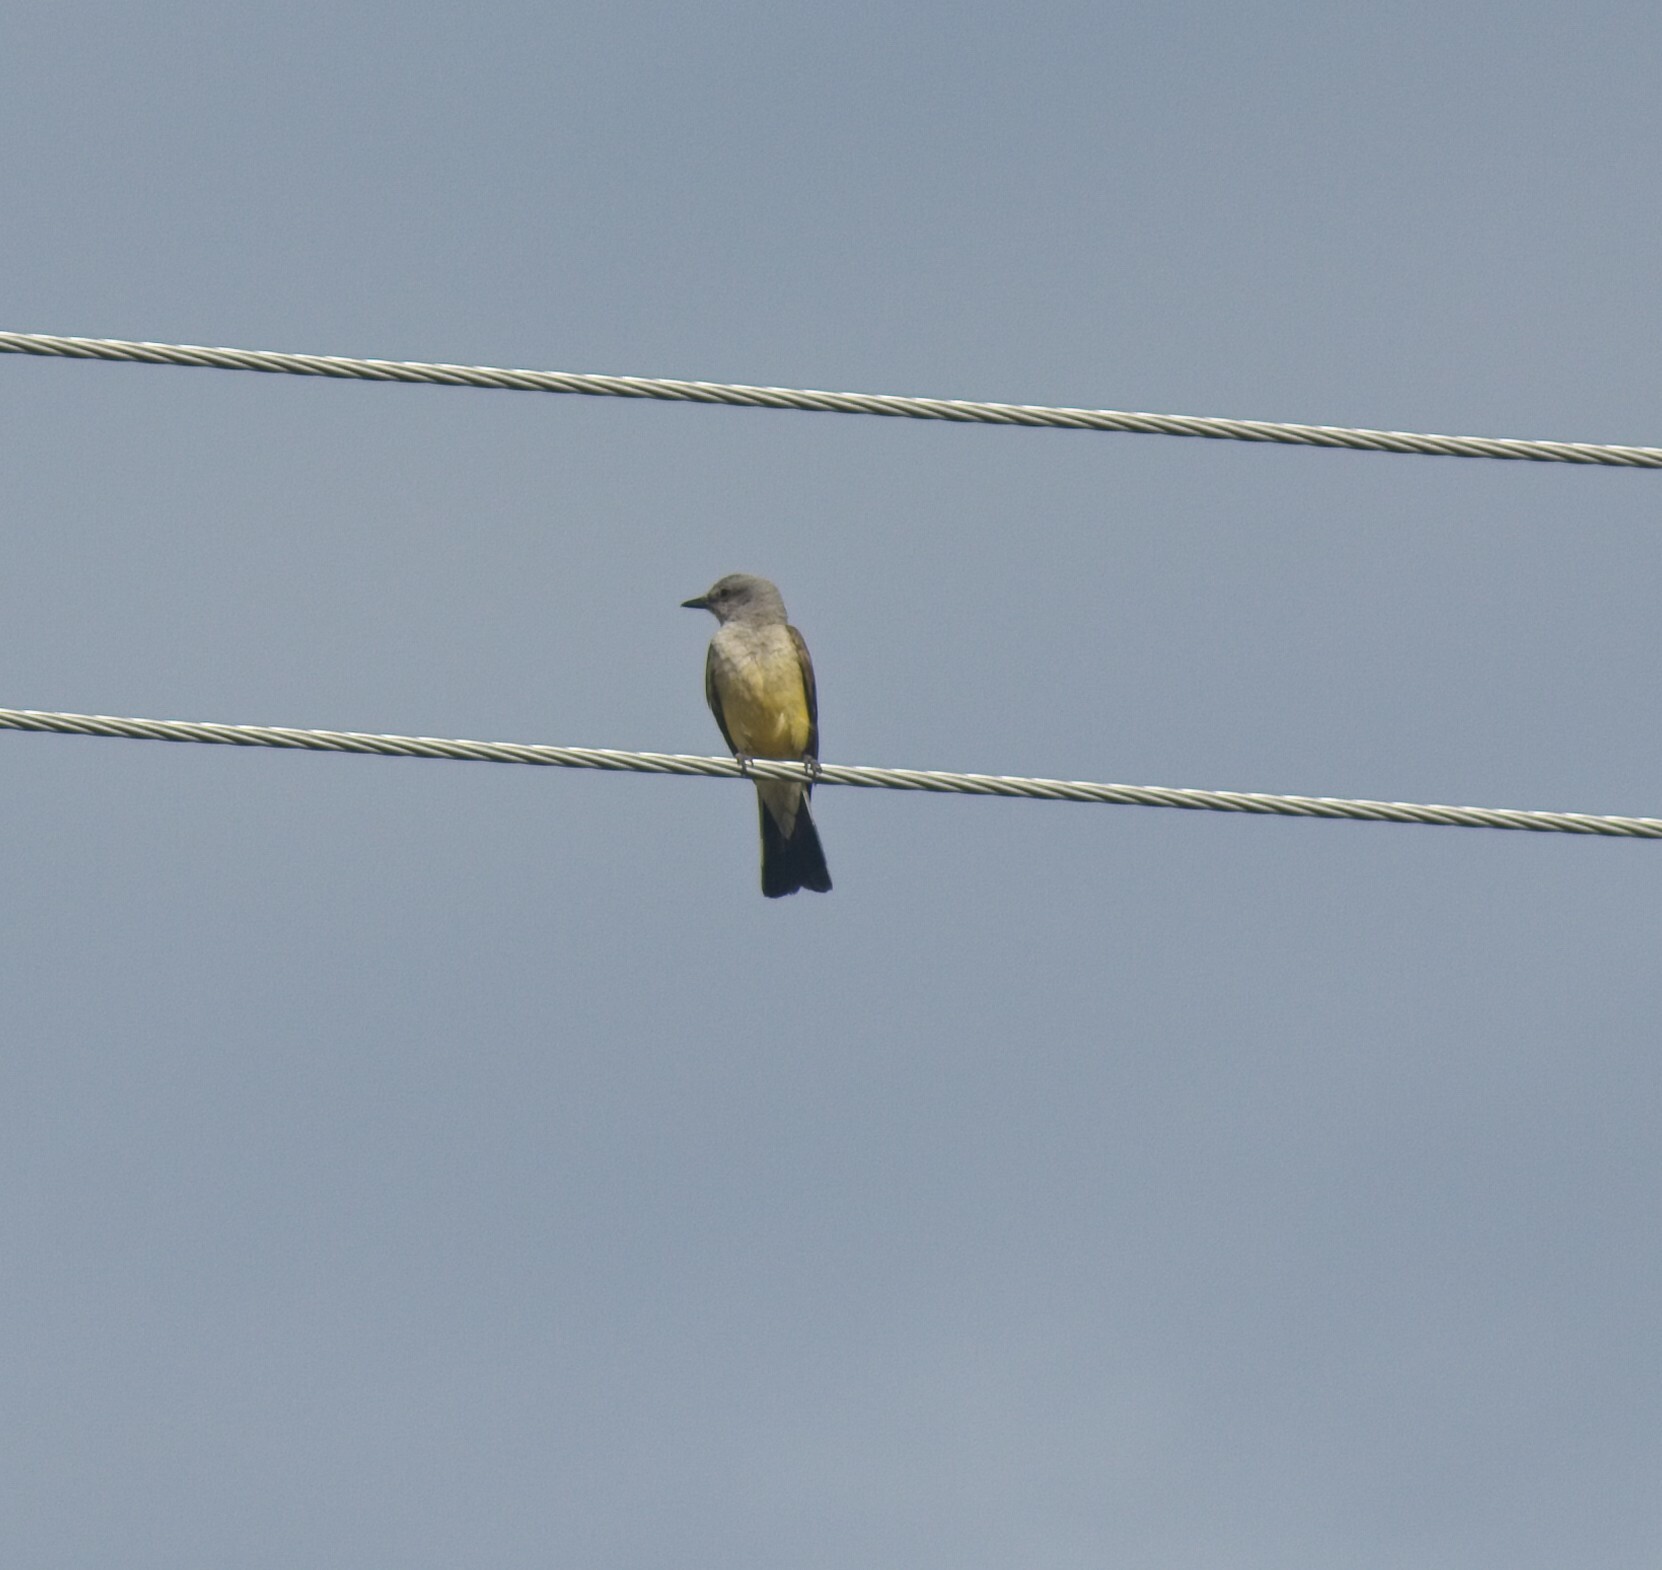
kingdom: Animalia
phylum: Chordata
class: Aves
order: Passeriformes
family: Tyrannidae
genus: Tyrannus
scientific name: Tyrannus verticalis
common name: Western kingbird
